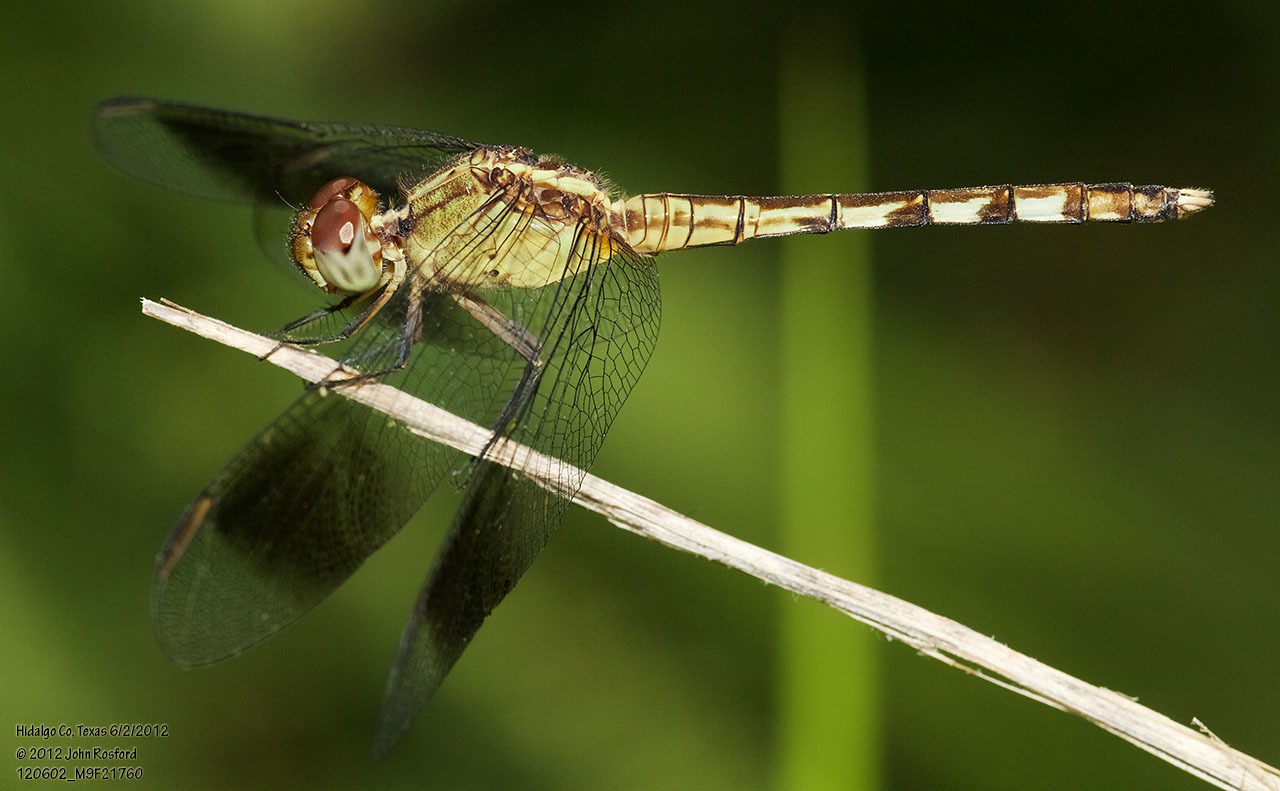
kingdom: Animalia
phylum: Arthropoda
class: Insecta
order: Odonata
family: Libellulidae
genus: Erythrodiplax
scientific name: Erythrodiplax umbrata
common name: Band-winged dragonlet
